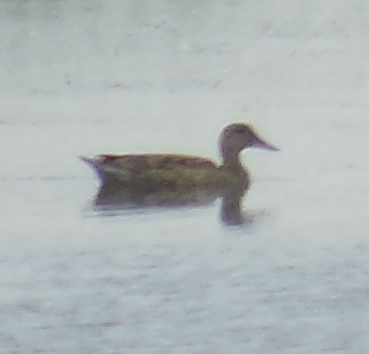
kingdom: Animalia
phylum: Chordata
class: Aves
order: Anseriformes
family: Anatidae
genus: Mareca
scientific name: Mareca strepera
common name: Gadwall
